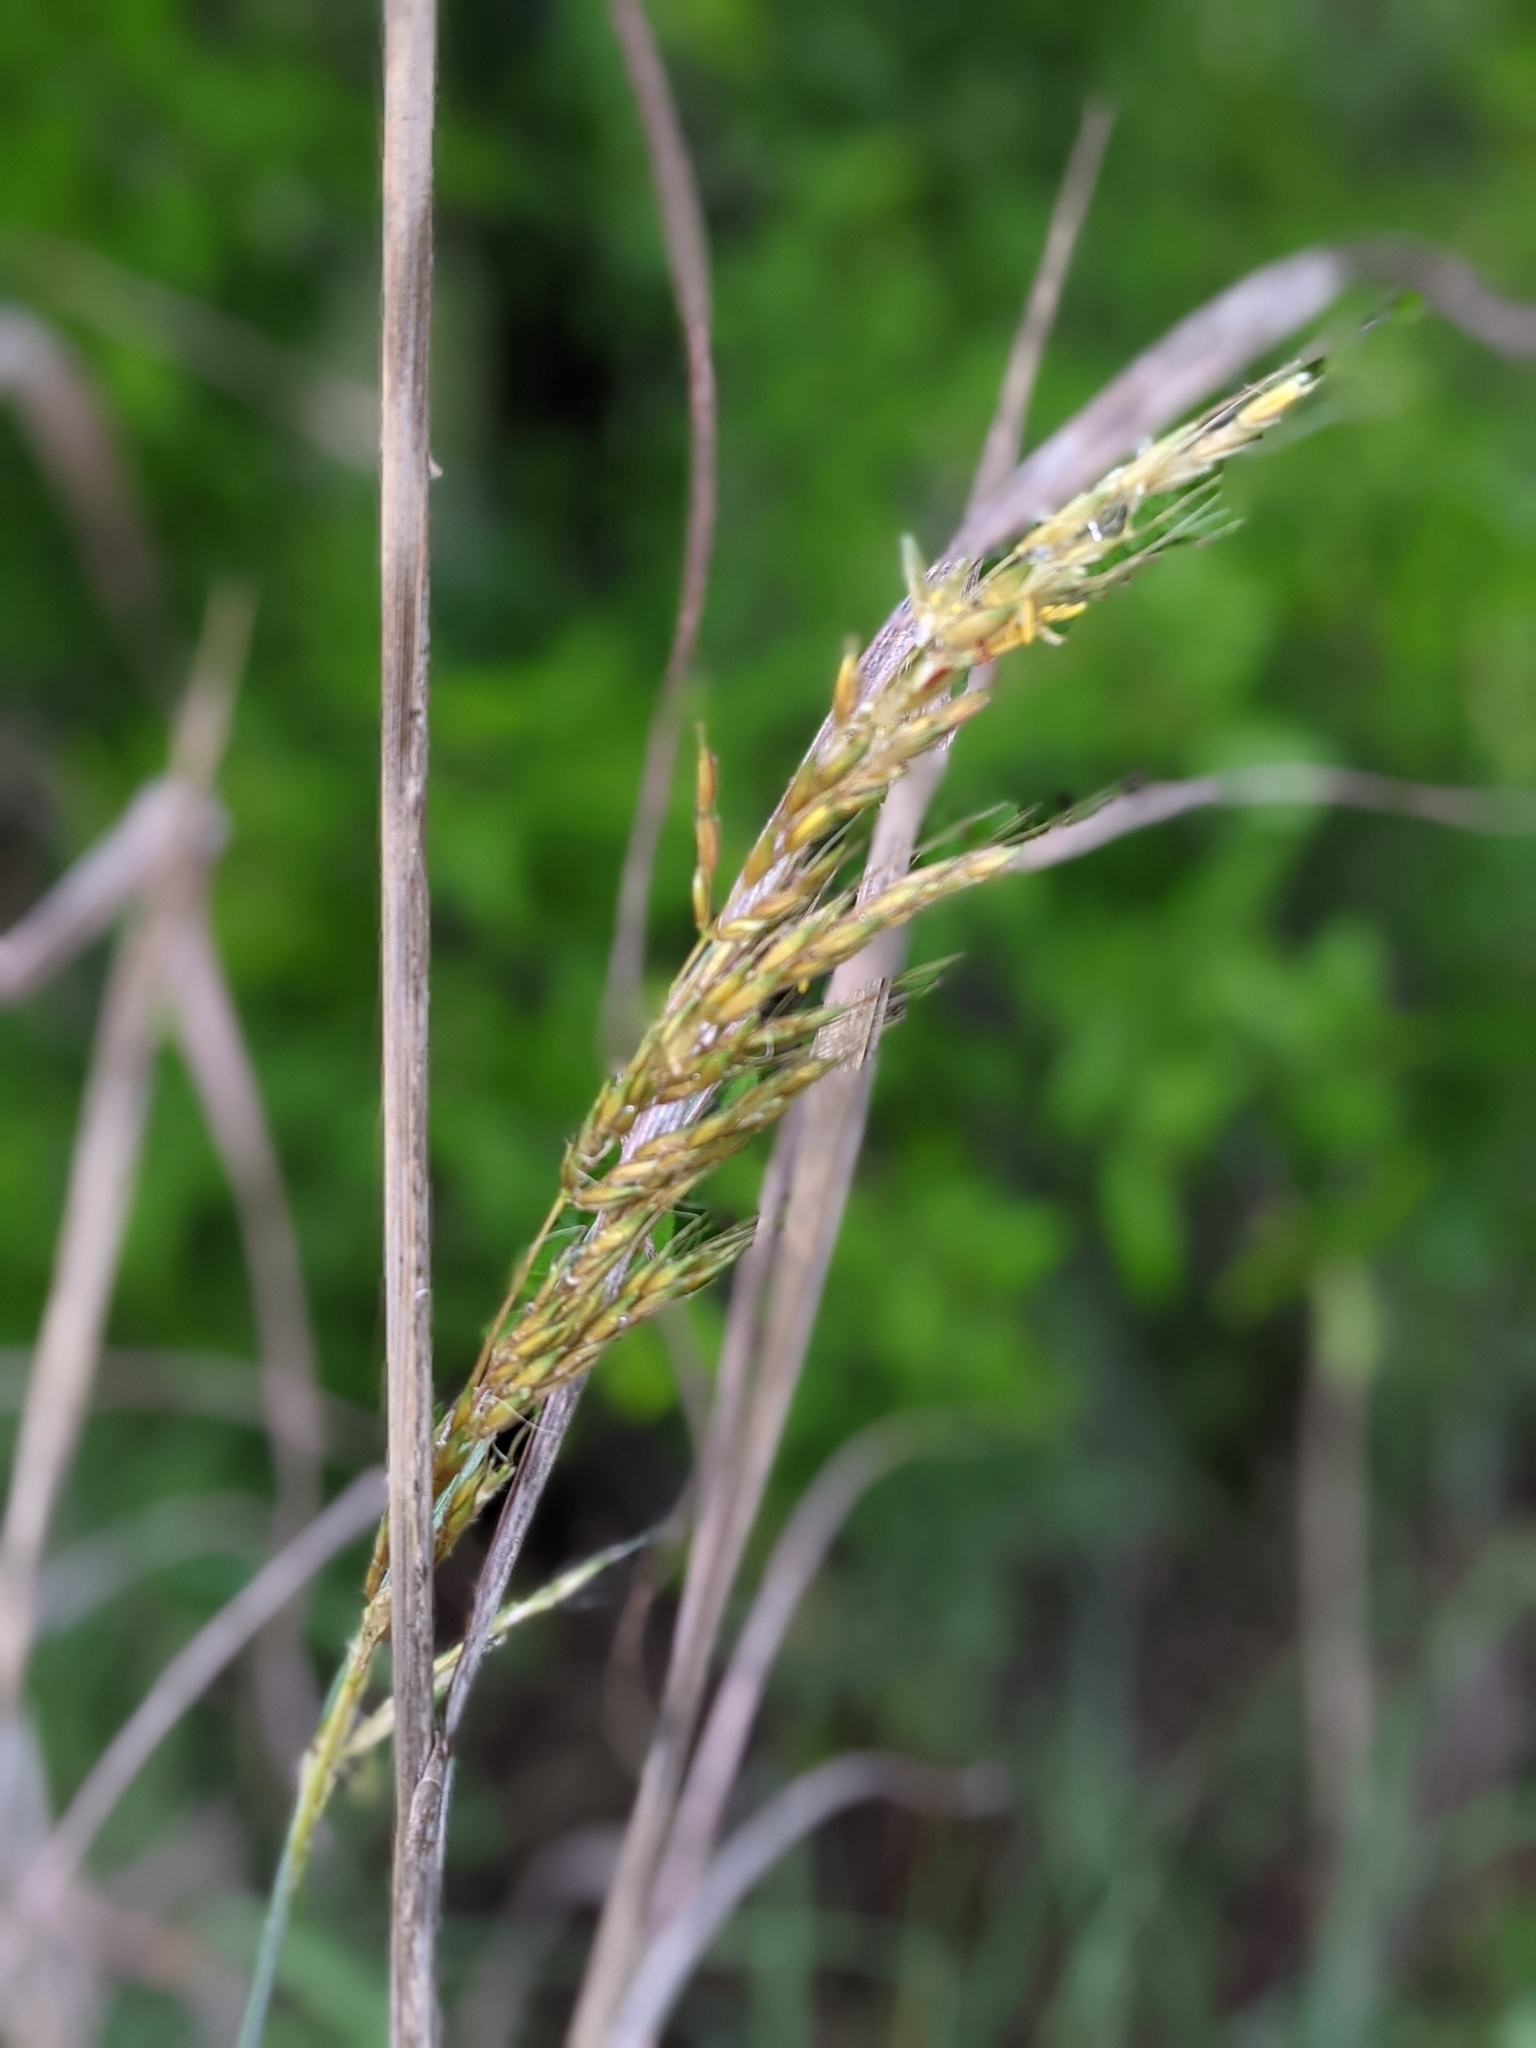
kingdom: Plantae
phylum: Tracheophyta
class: Liliopsida
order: Poales
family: Poaceae
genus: Sorghastrum
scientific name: Sorghastrum nutans
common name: Indian grass
